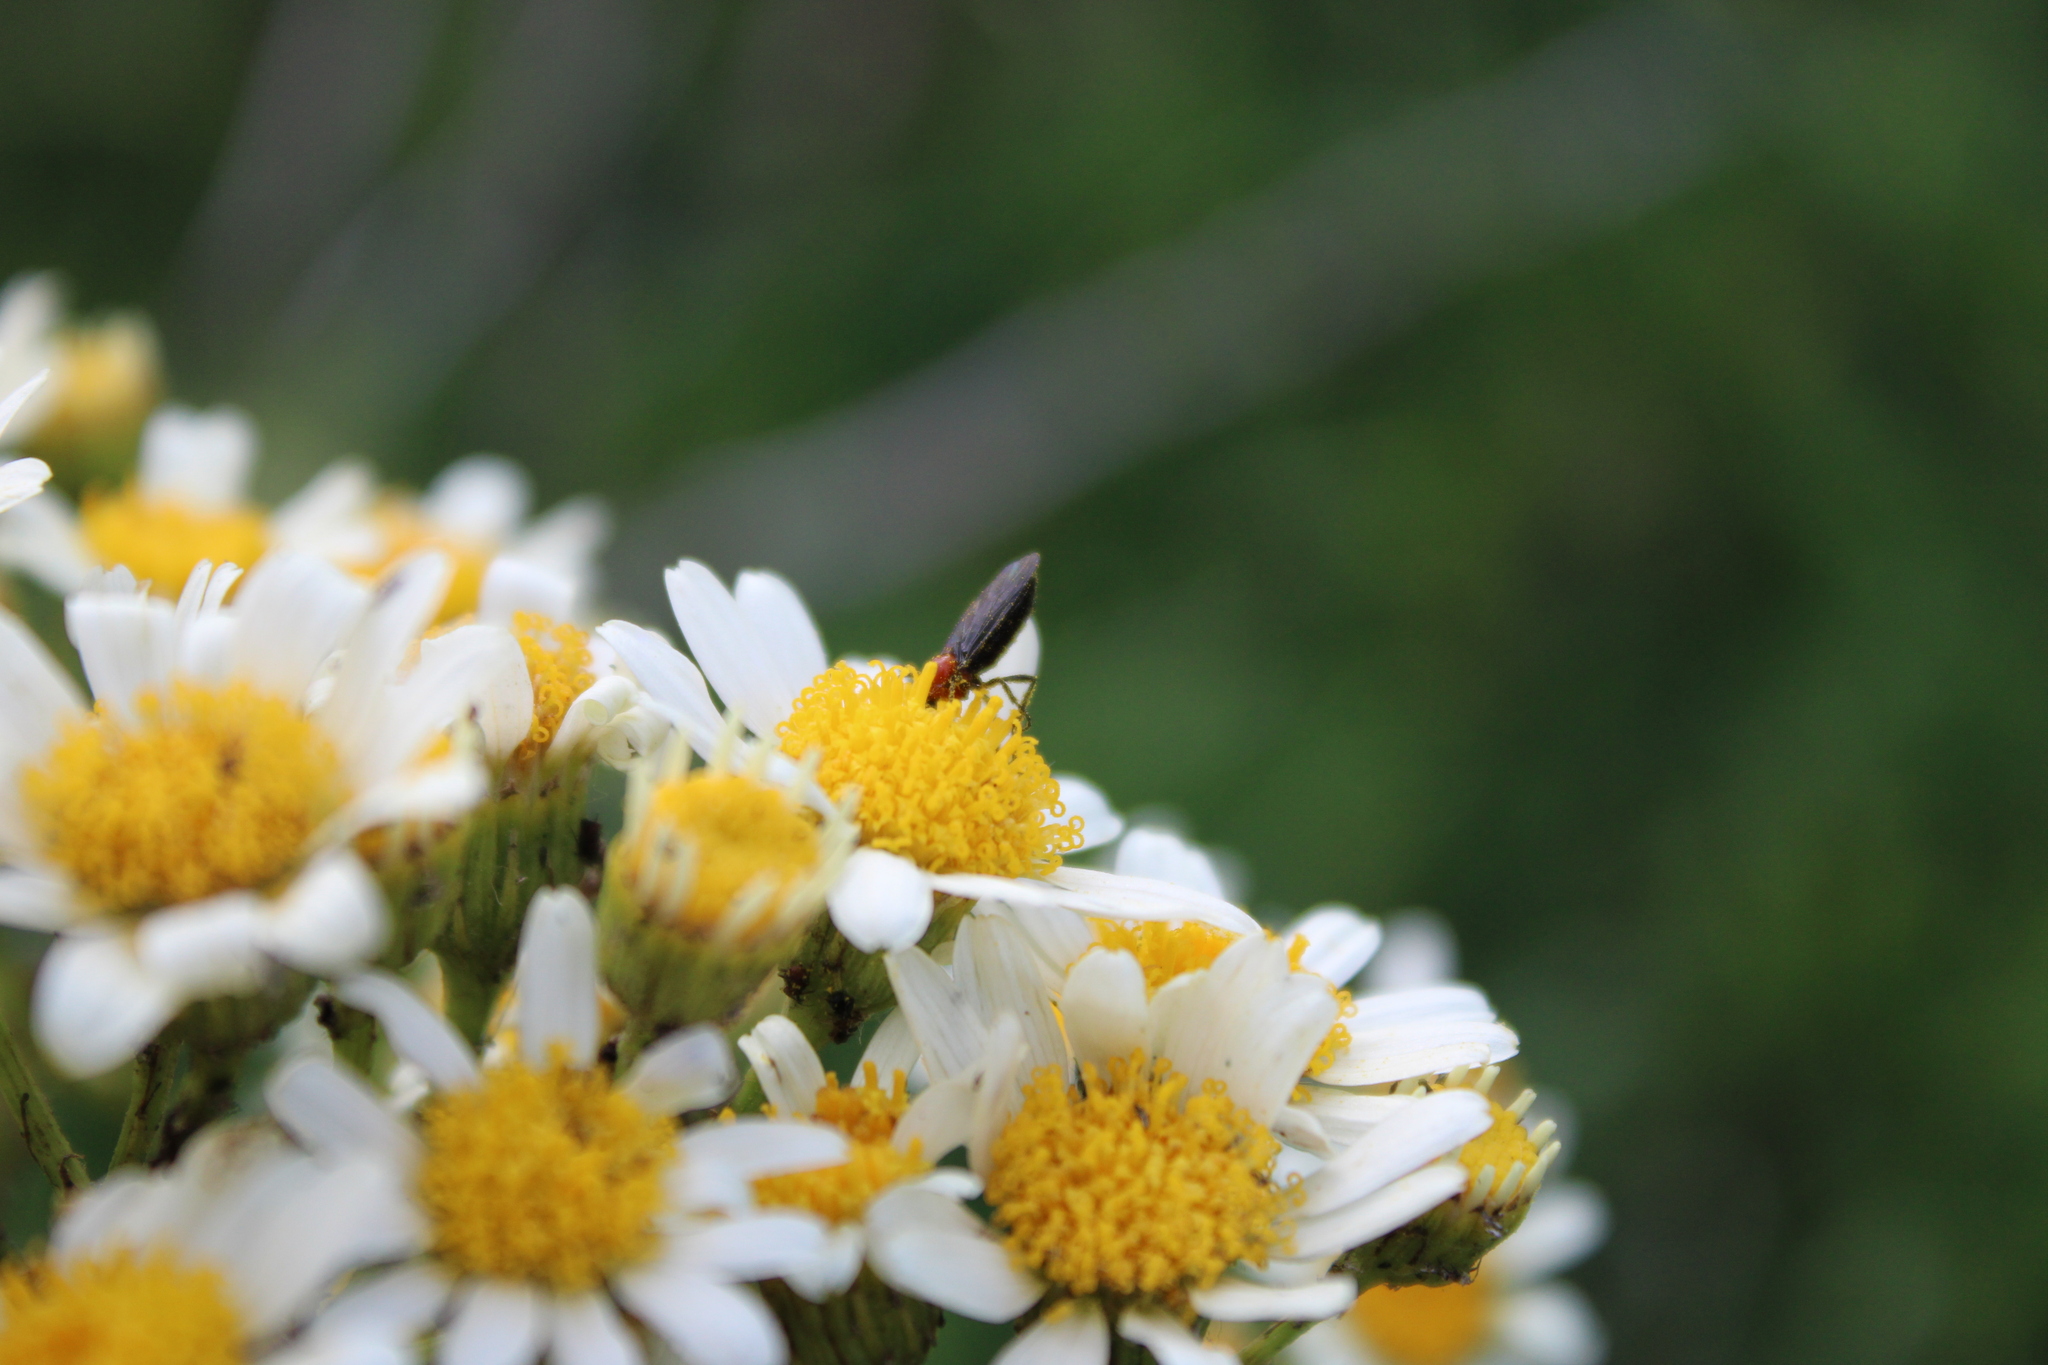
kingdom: Animalia
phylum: Arthropoda
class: Insecta
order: Diptera
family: Bibionidae
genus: Dilophus
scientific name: Dilophus pectoralis
